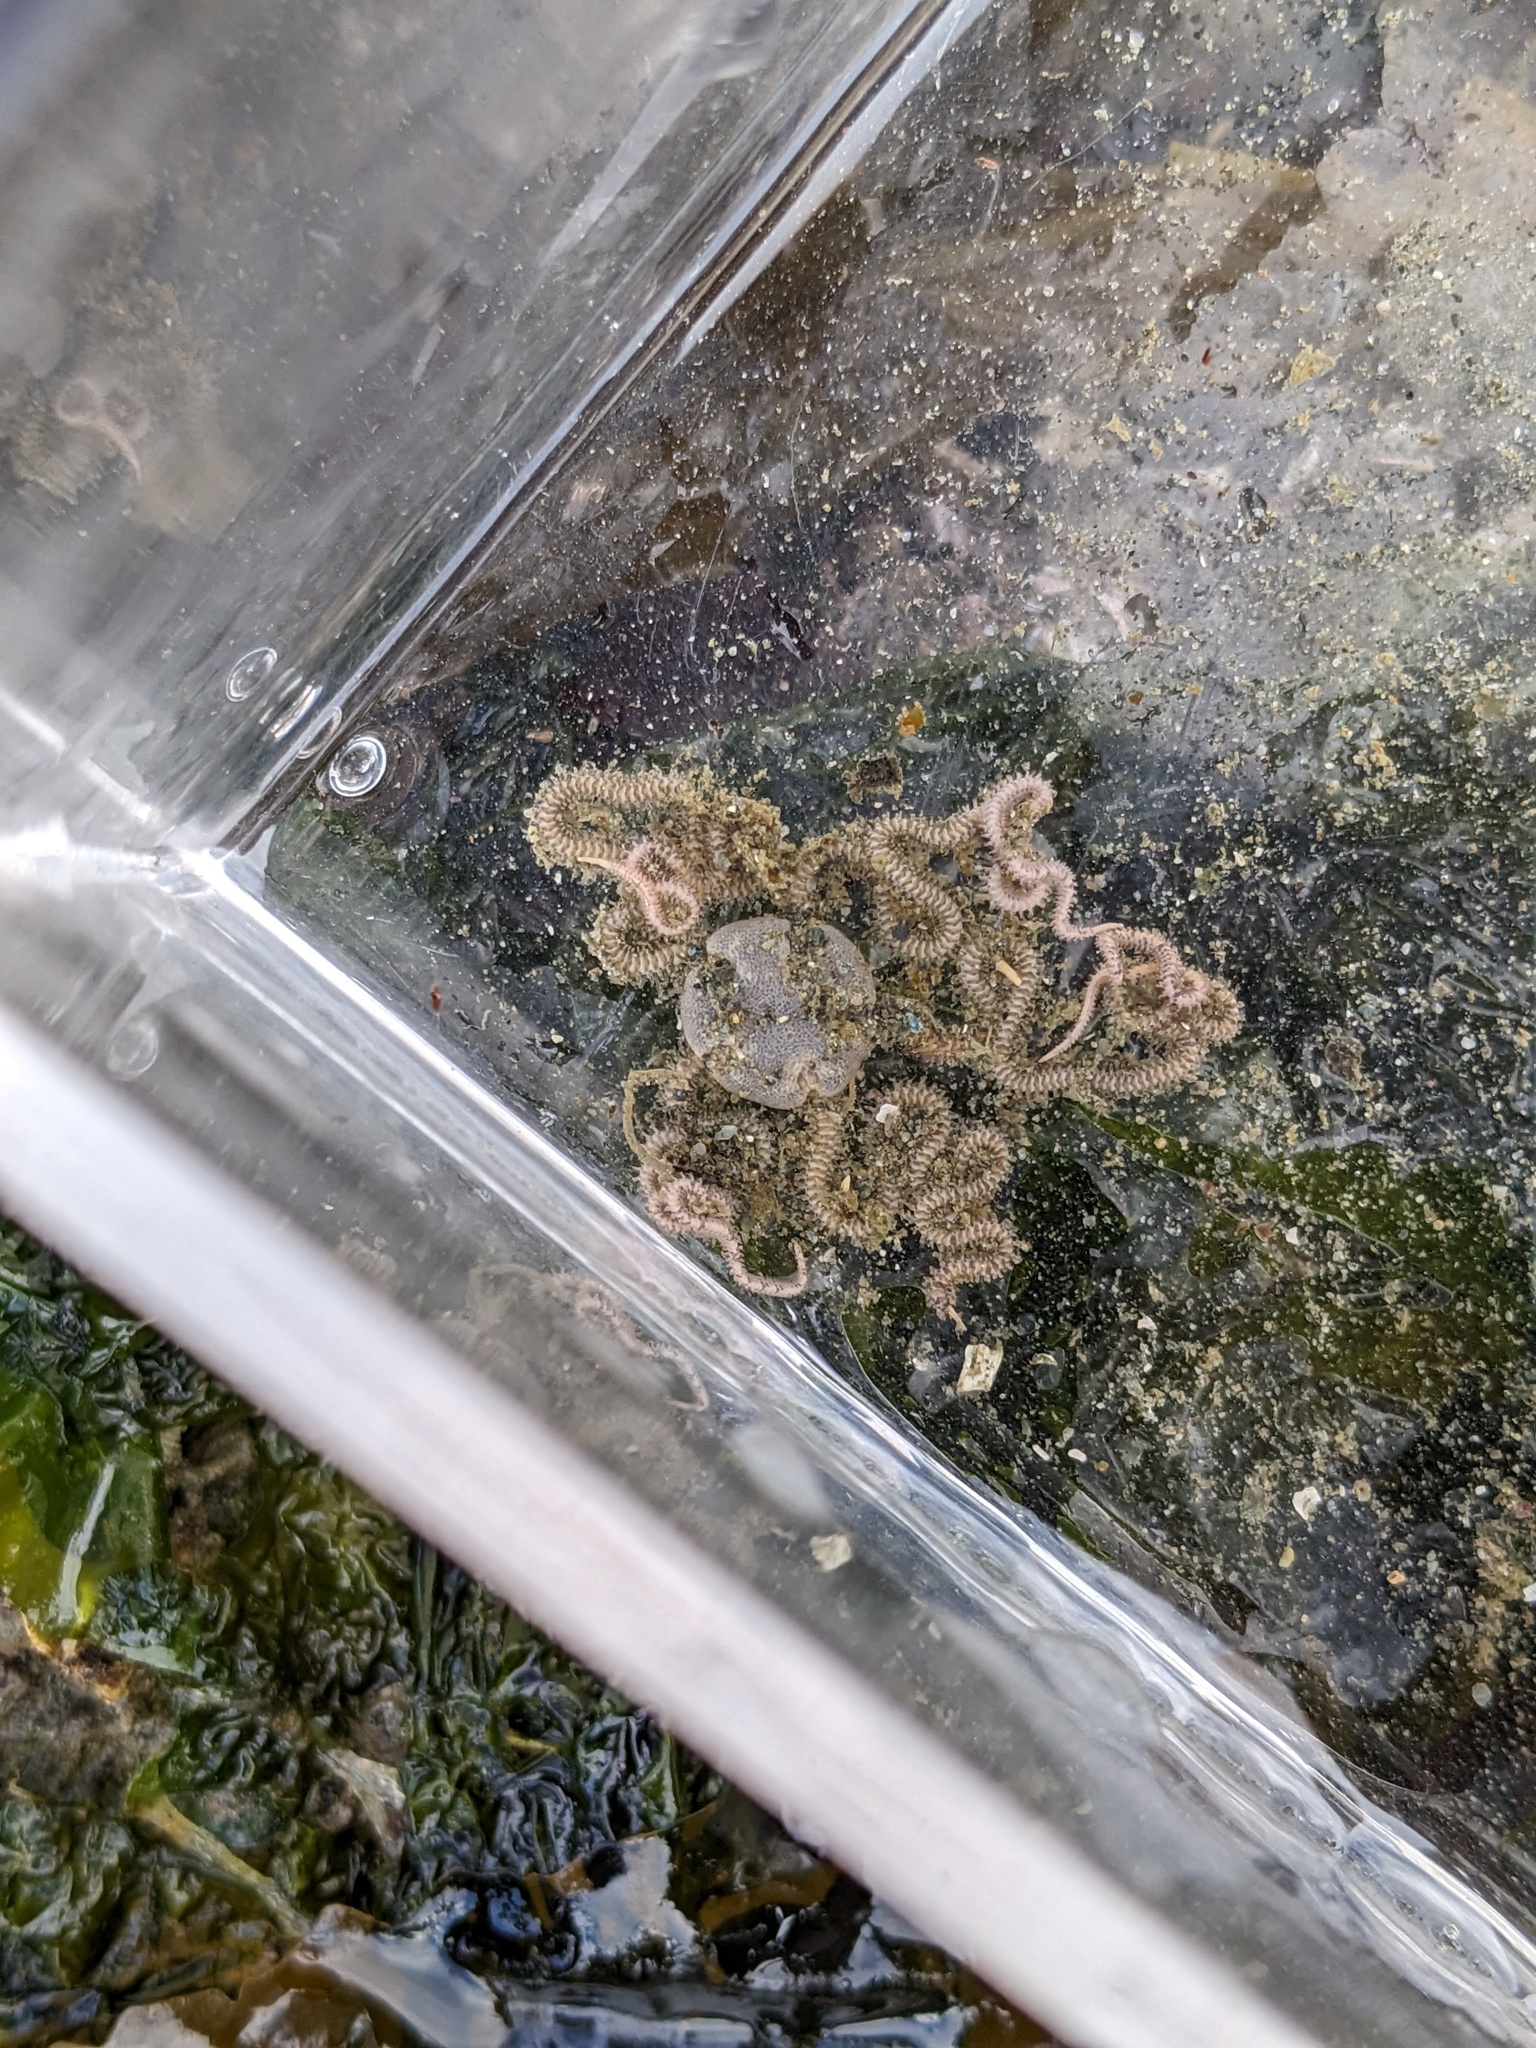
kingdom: Animalia
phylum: Echinodermata
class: Ophiuroidea
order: Amphilepidida
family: Amphiuridae
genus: Amphiodia
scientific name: Amphiodia occidentalis
